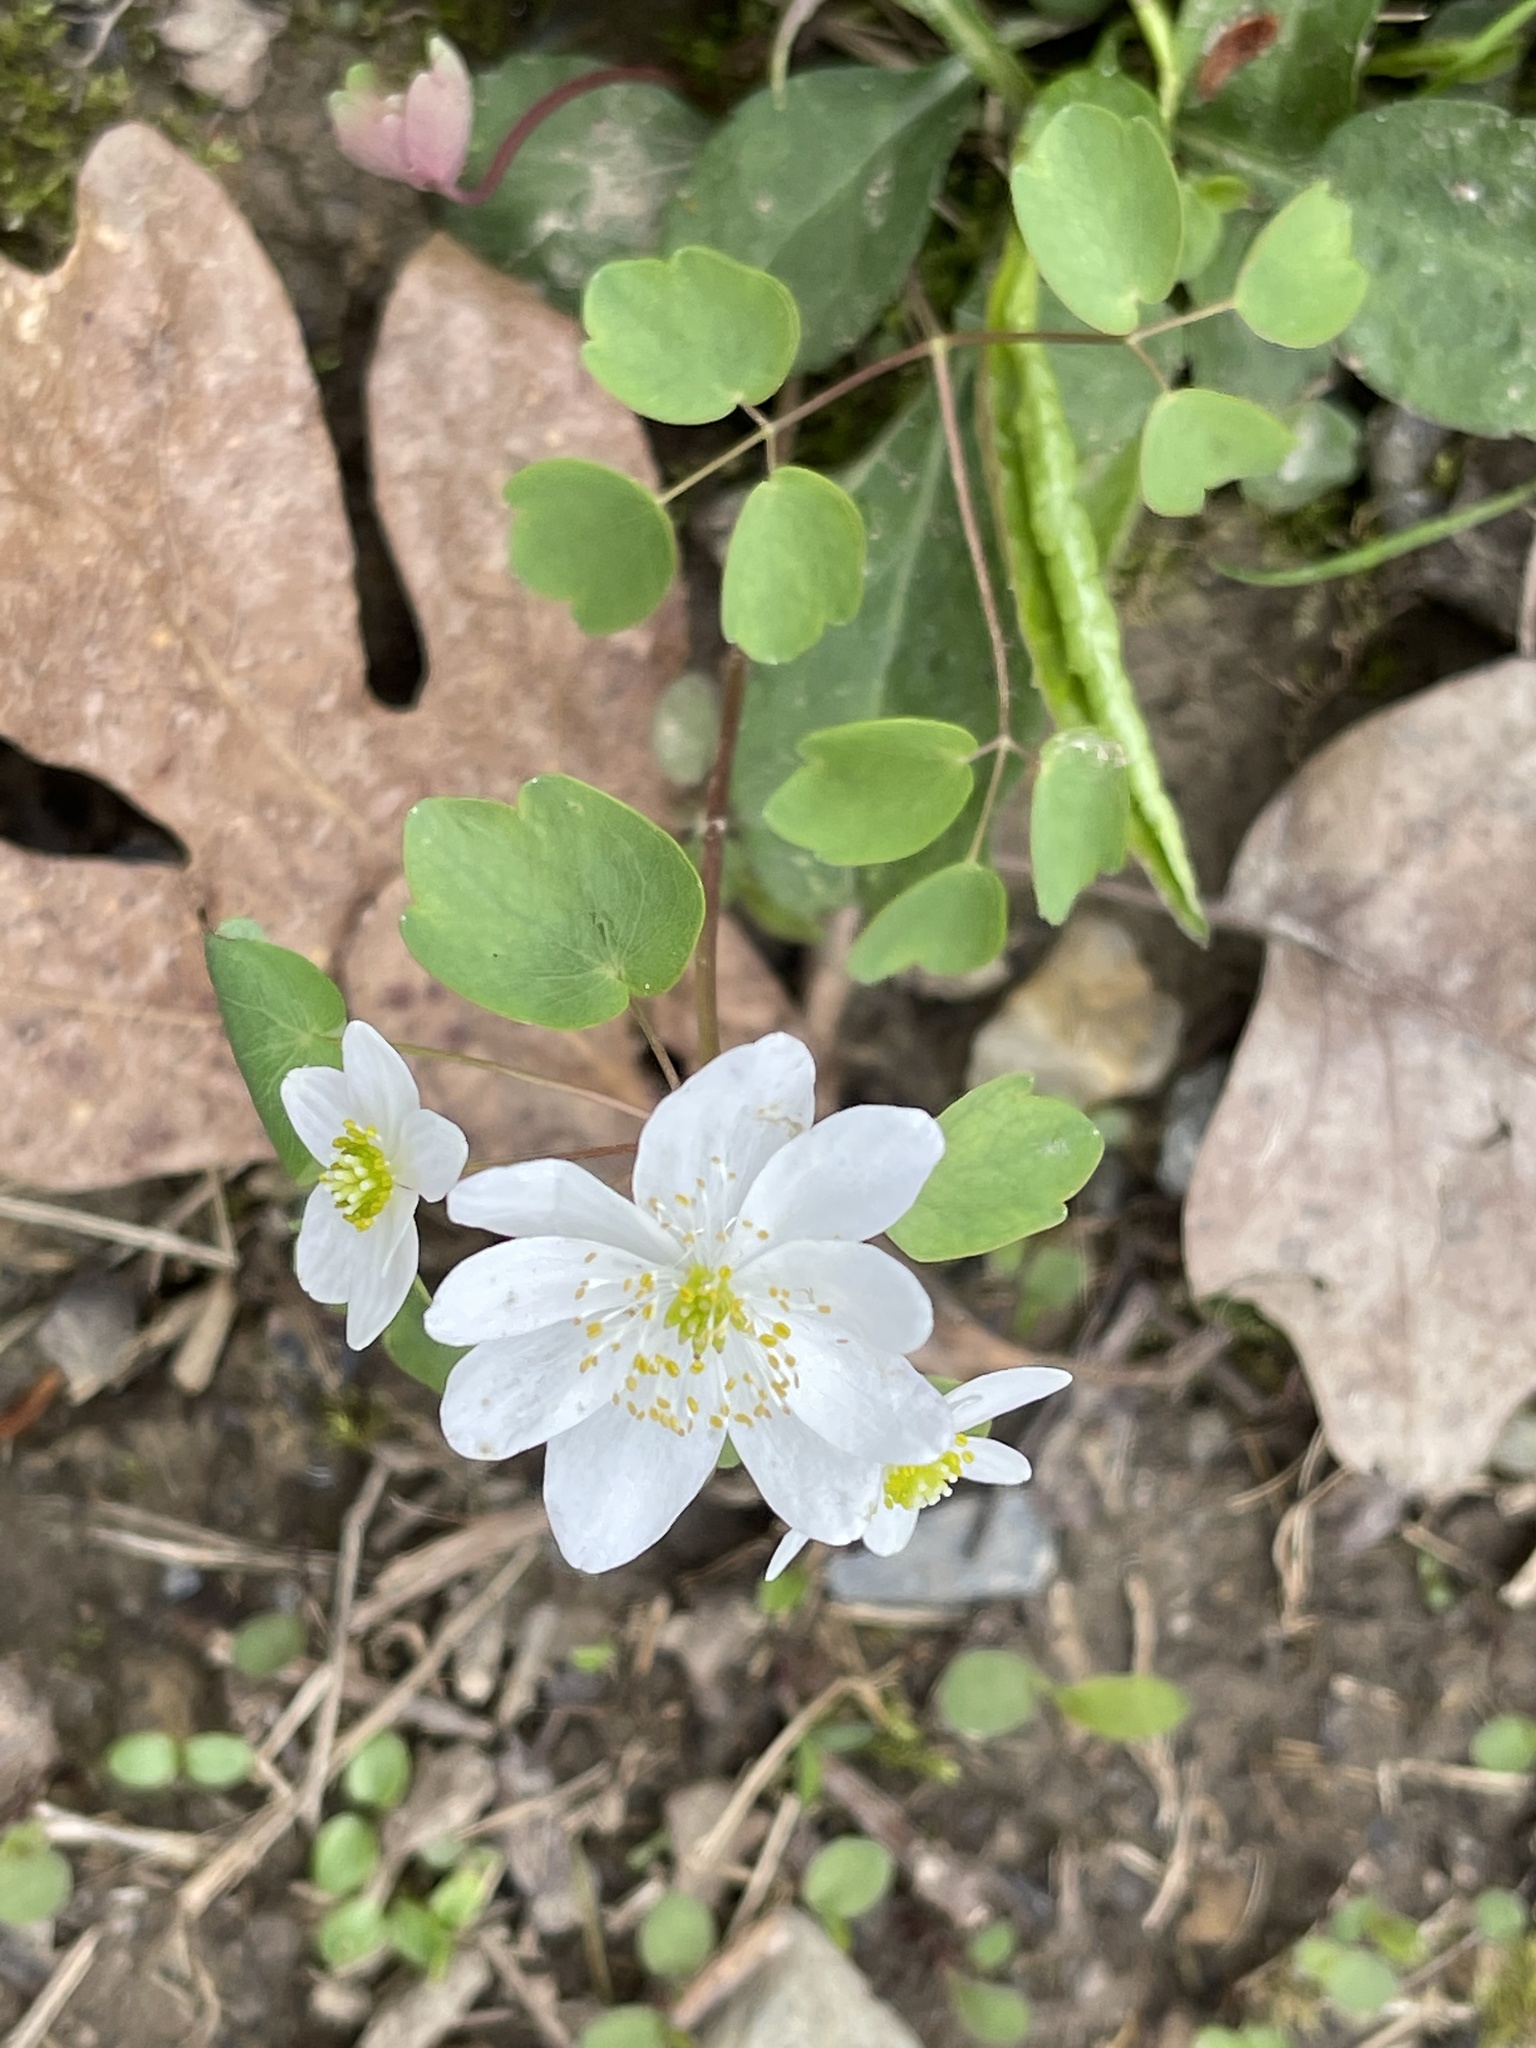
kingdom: Plantae
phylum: Tracheophyta
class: Magnoliopsida
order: Ranunculales
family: Ranunculaceae
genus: Thalictrum
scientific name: Thalictrum thalictroides
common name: Rue-anemone
